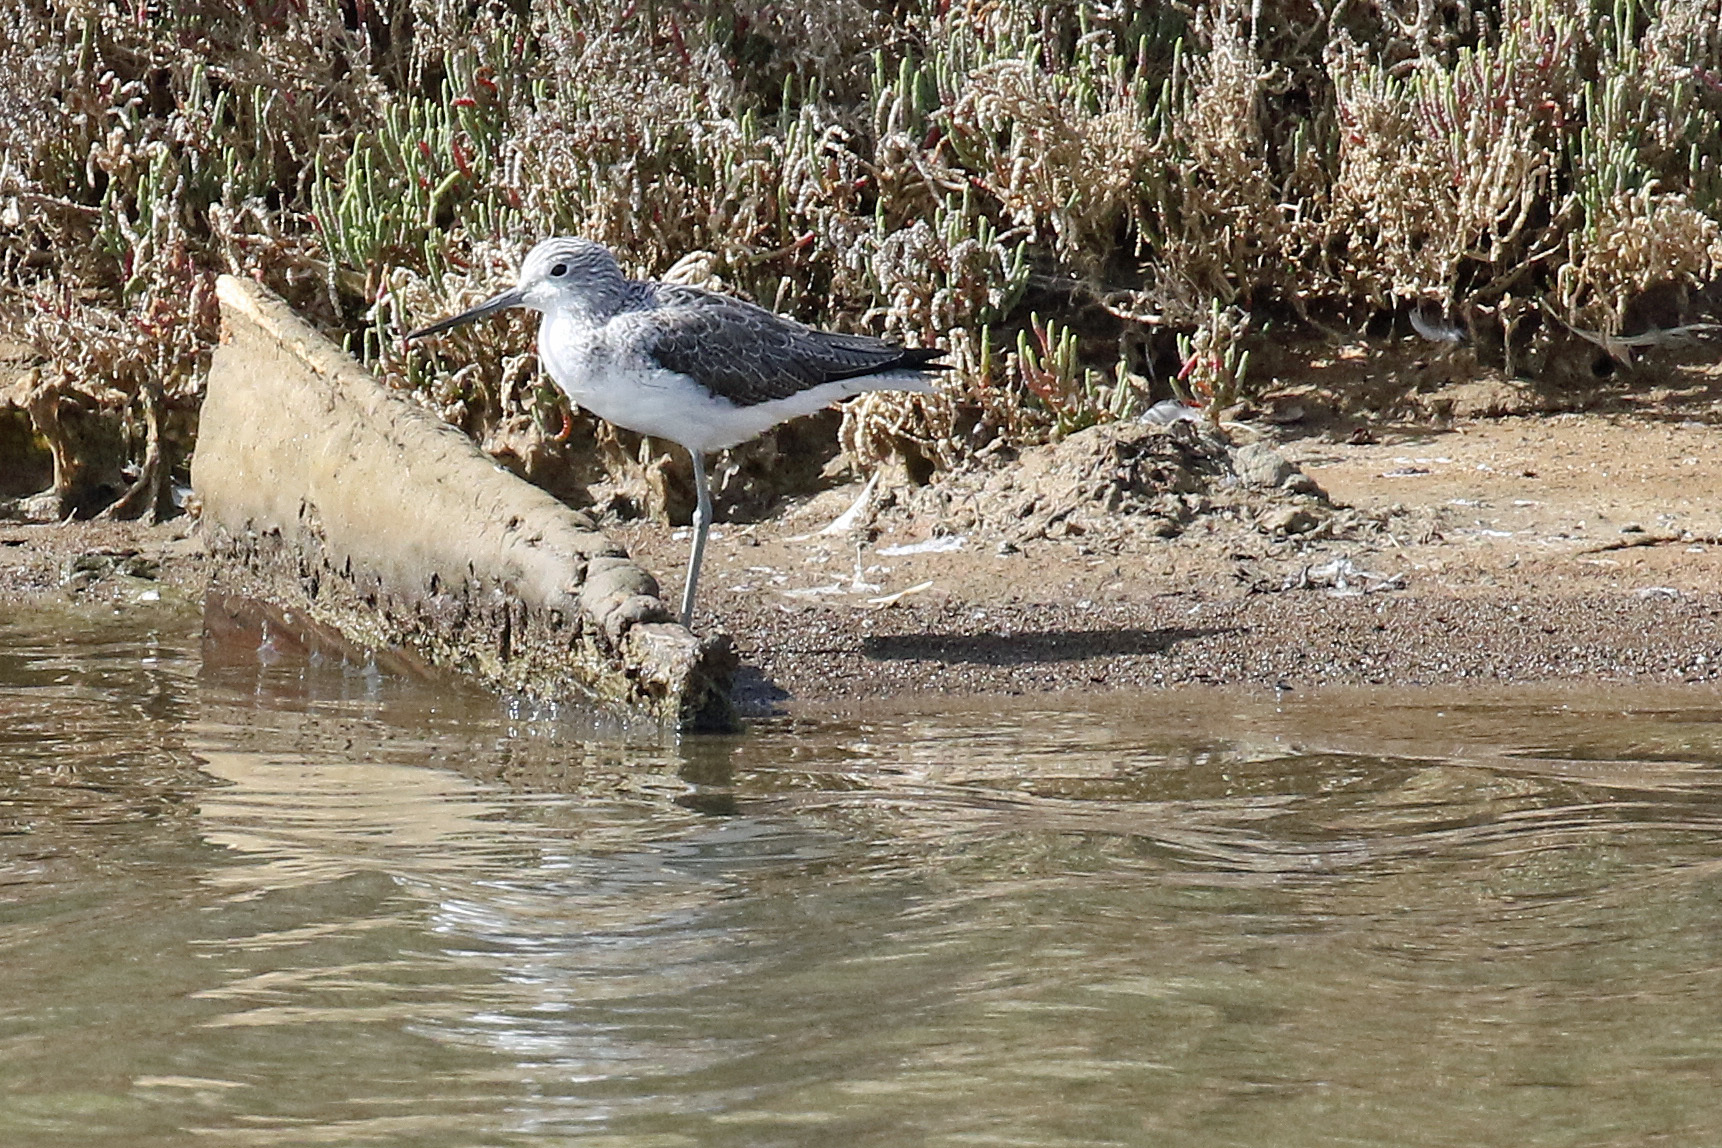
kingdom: Animalia
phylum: Chordata
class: Aves
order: Charadriiformes
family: Scolopacidae
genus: Tringa
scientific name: Tringa nebularia
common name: Common greenshank
